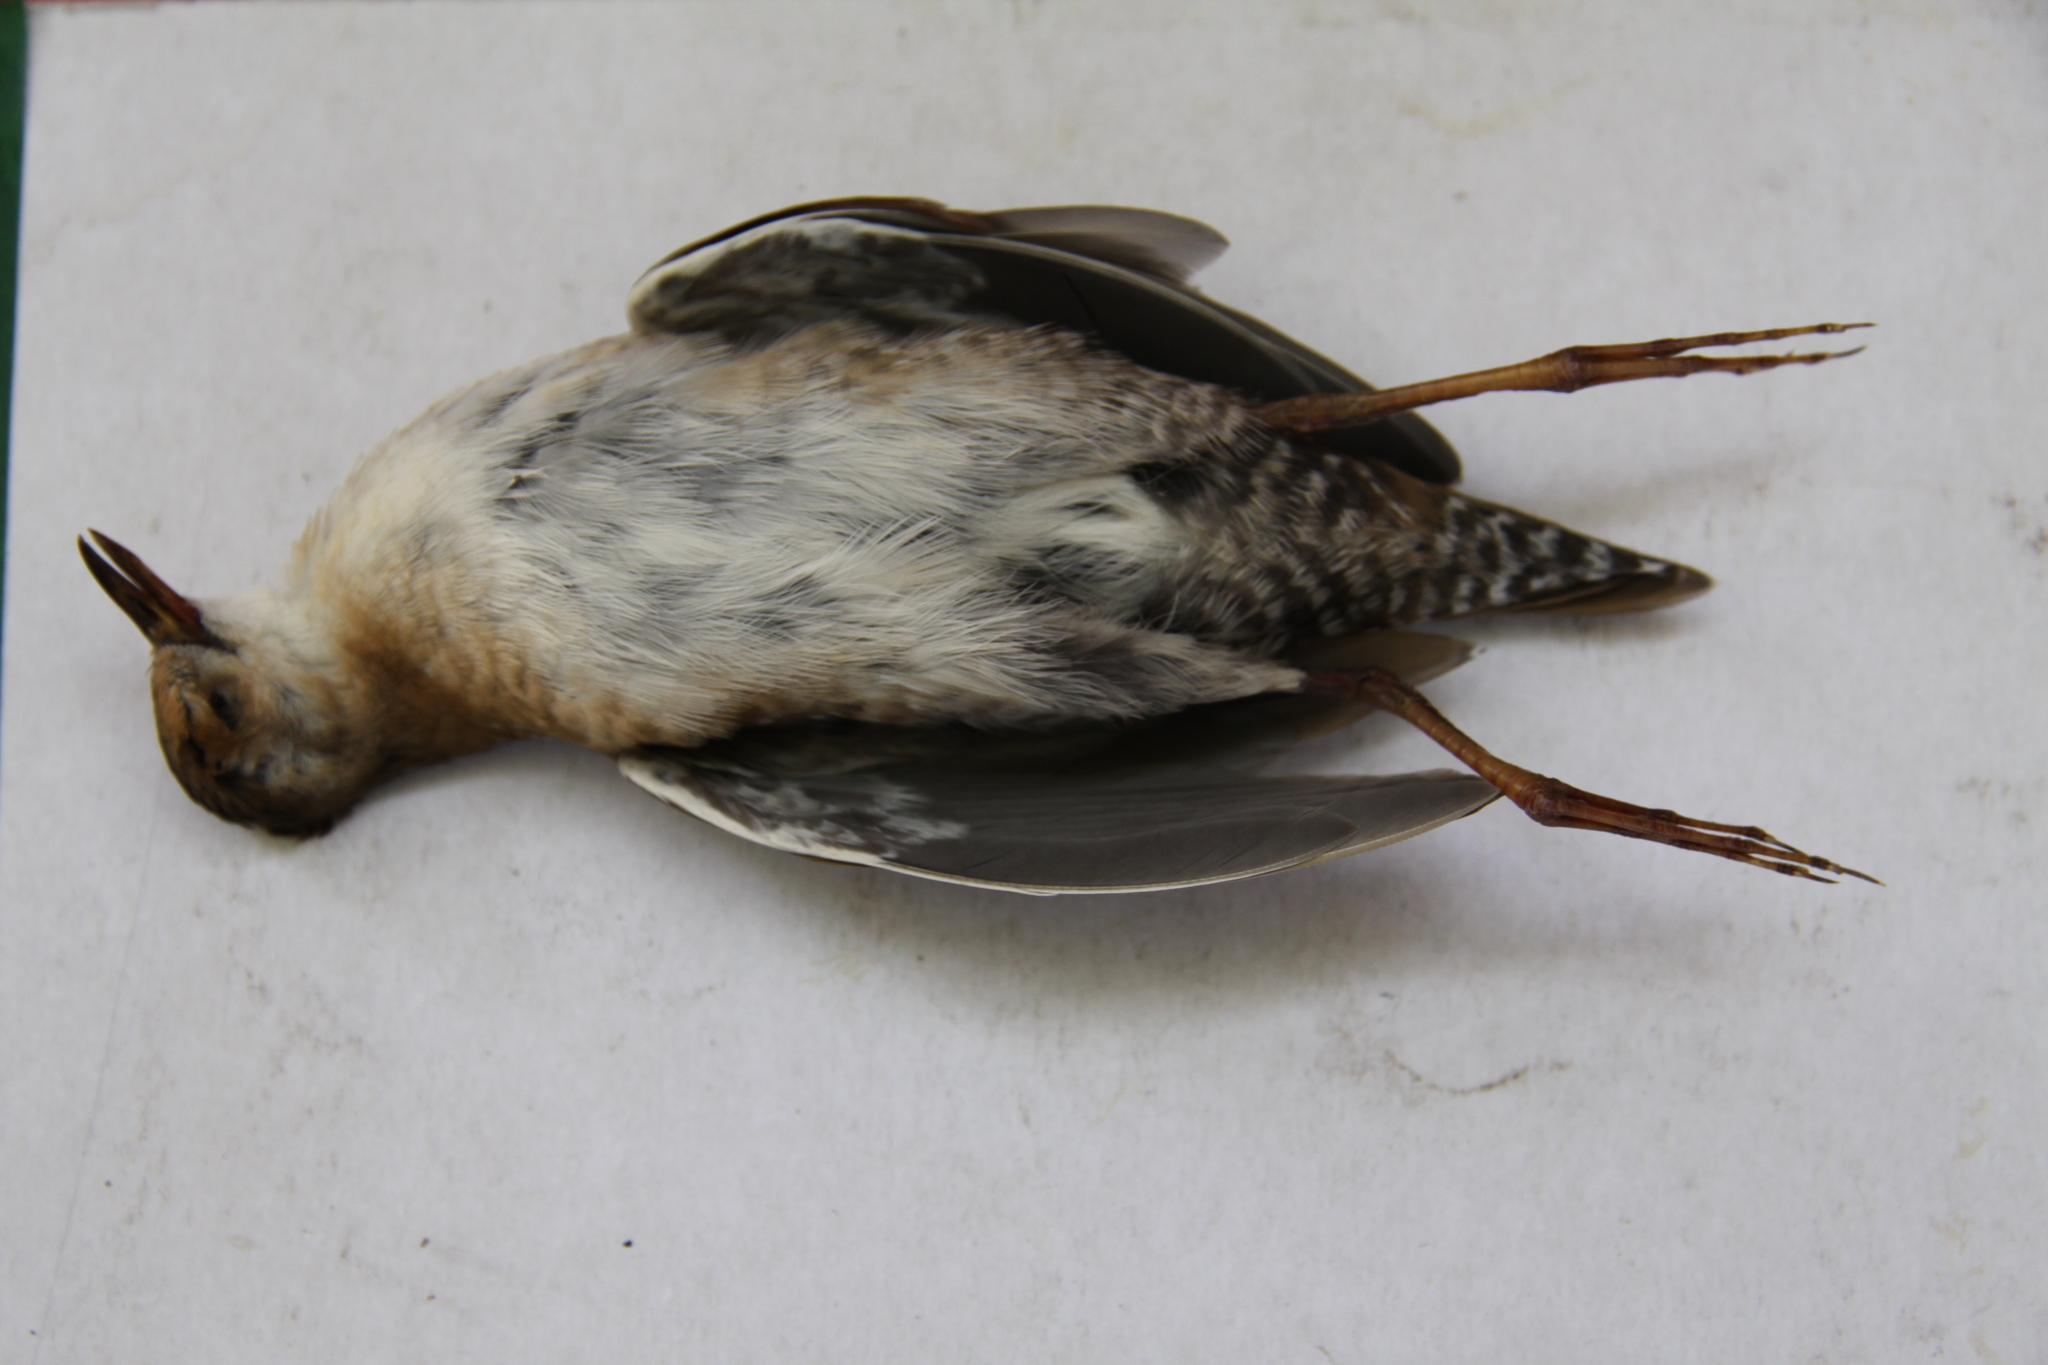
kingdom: Animalia
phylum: Chordata
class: Aves
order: Gruiformes
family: Rallidae
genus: Porzana
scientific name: Porzana pusilla
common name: Baillon's crake
